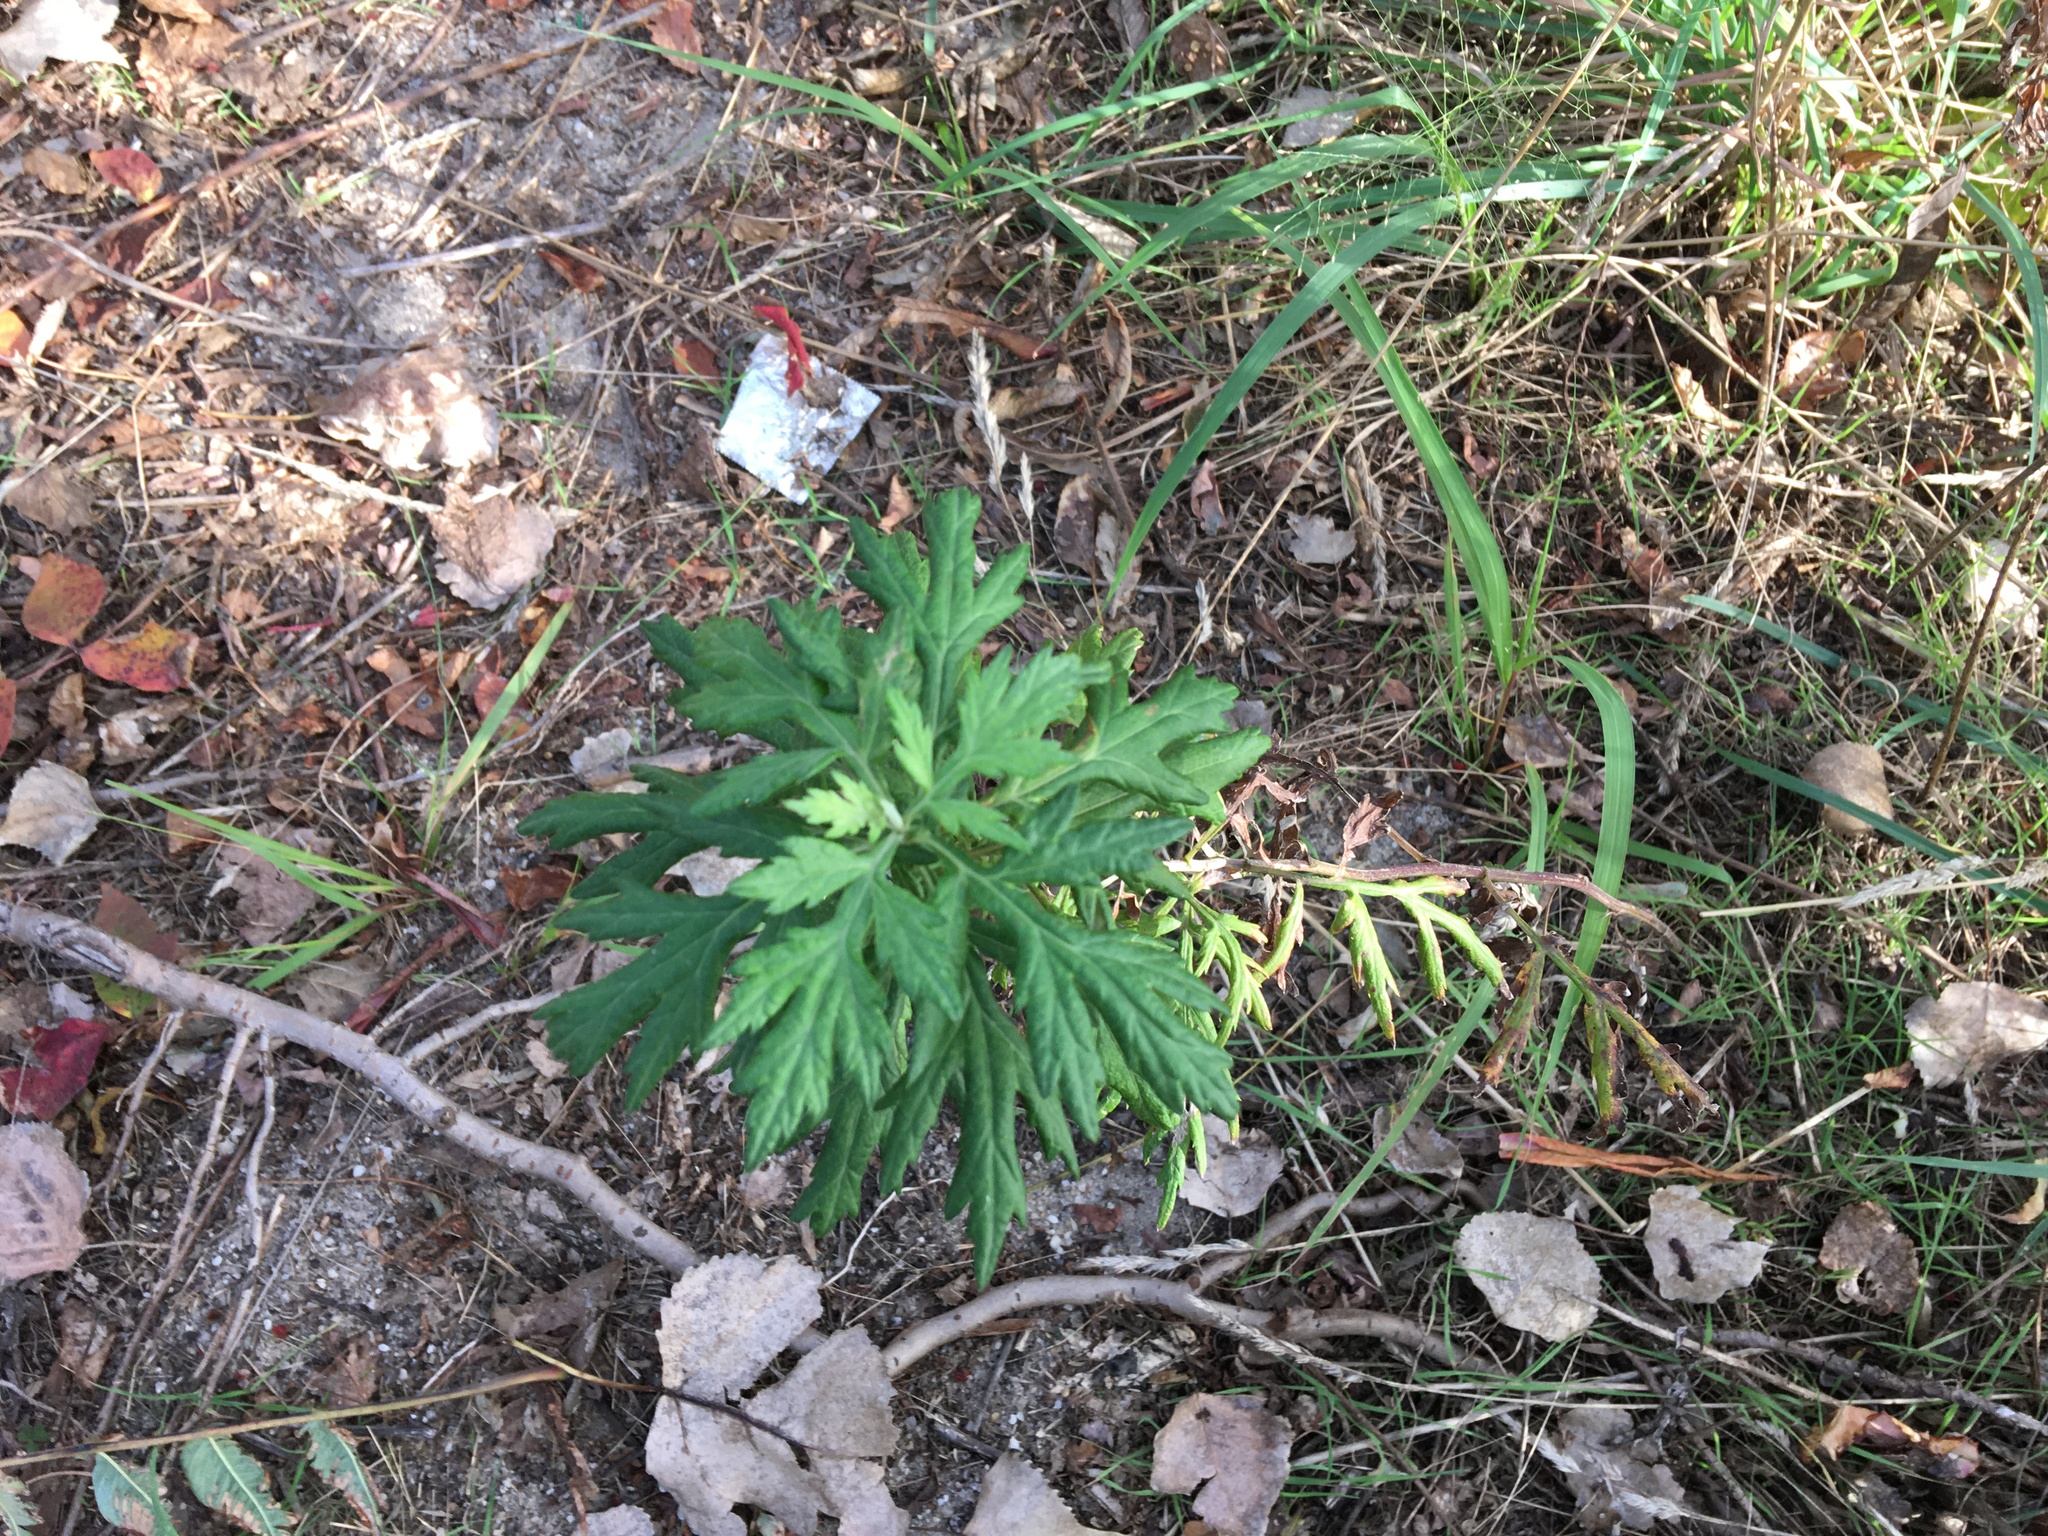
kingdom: Plantae
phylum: Tracheophyta
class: Magnoliopsida
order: Asterales
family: Asteraceae
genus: Artemisia
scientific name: Artemisia vulgaris
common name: Mugwort
